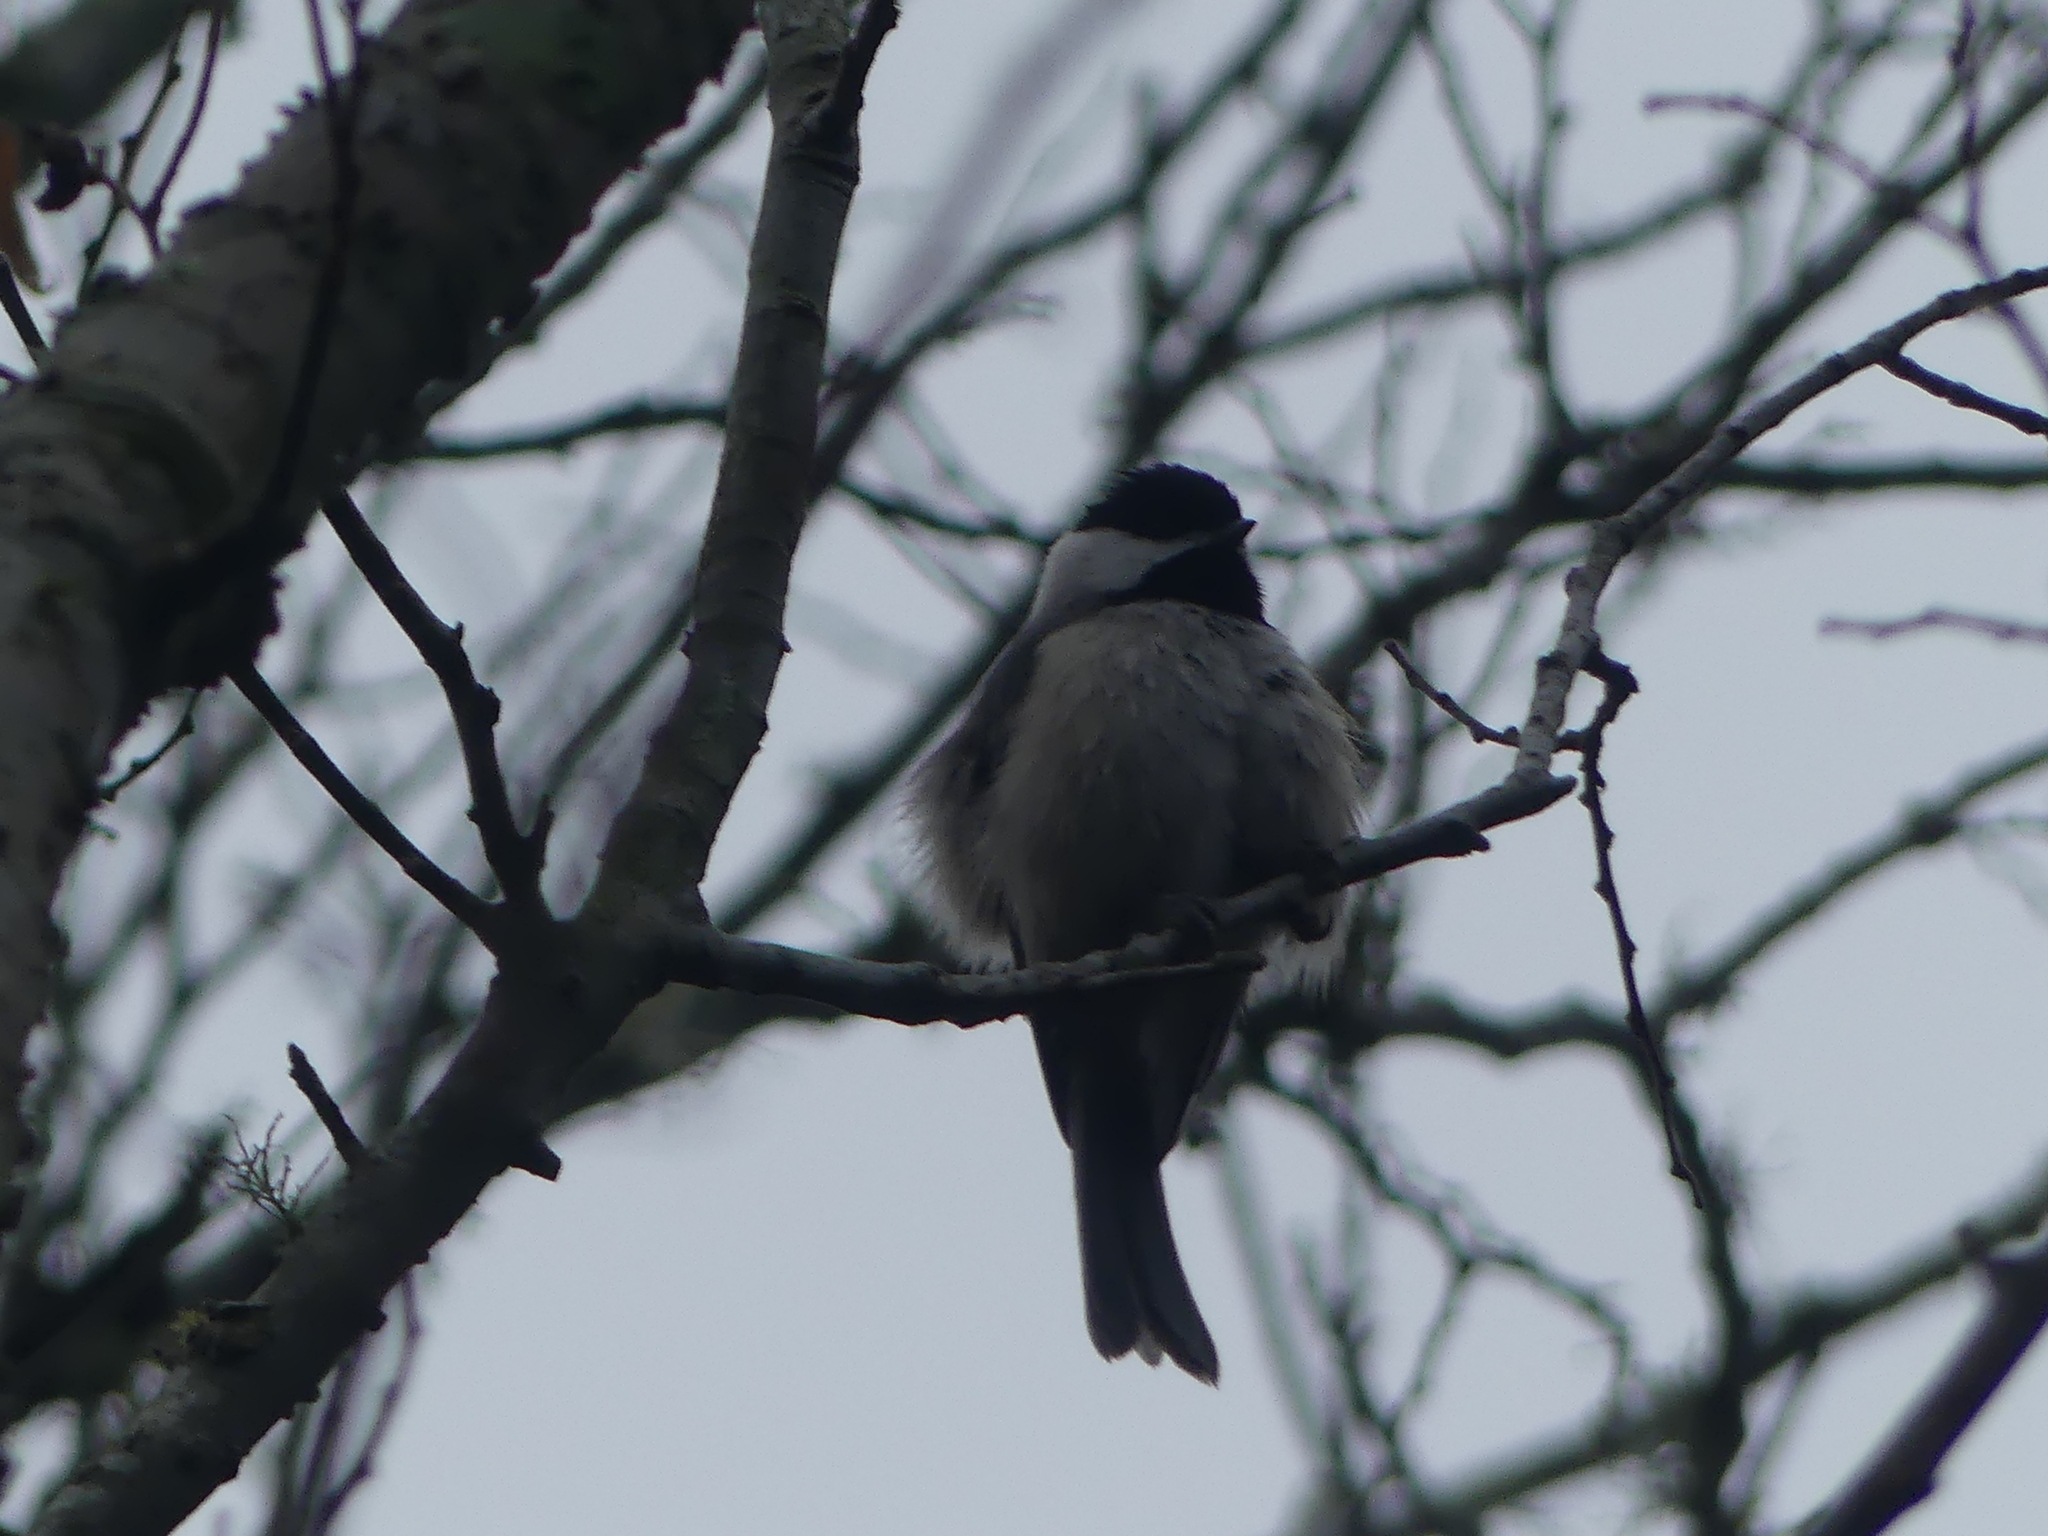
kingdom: Animalia
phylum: Chordata
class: Aves
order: Passeriformes
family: Paridae
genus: Poecile
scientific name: Poecile carolinensis
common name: Carolina chickadee
